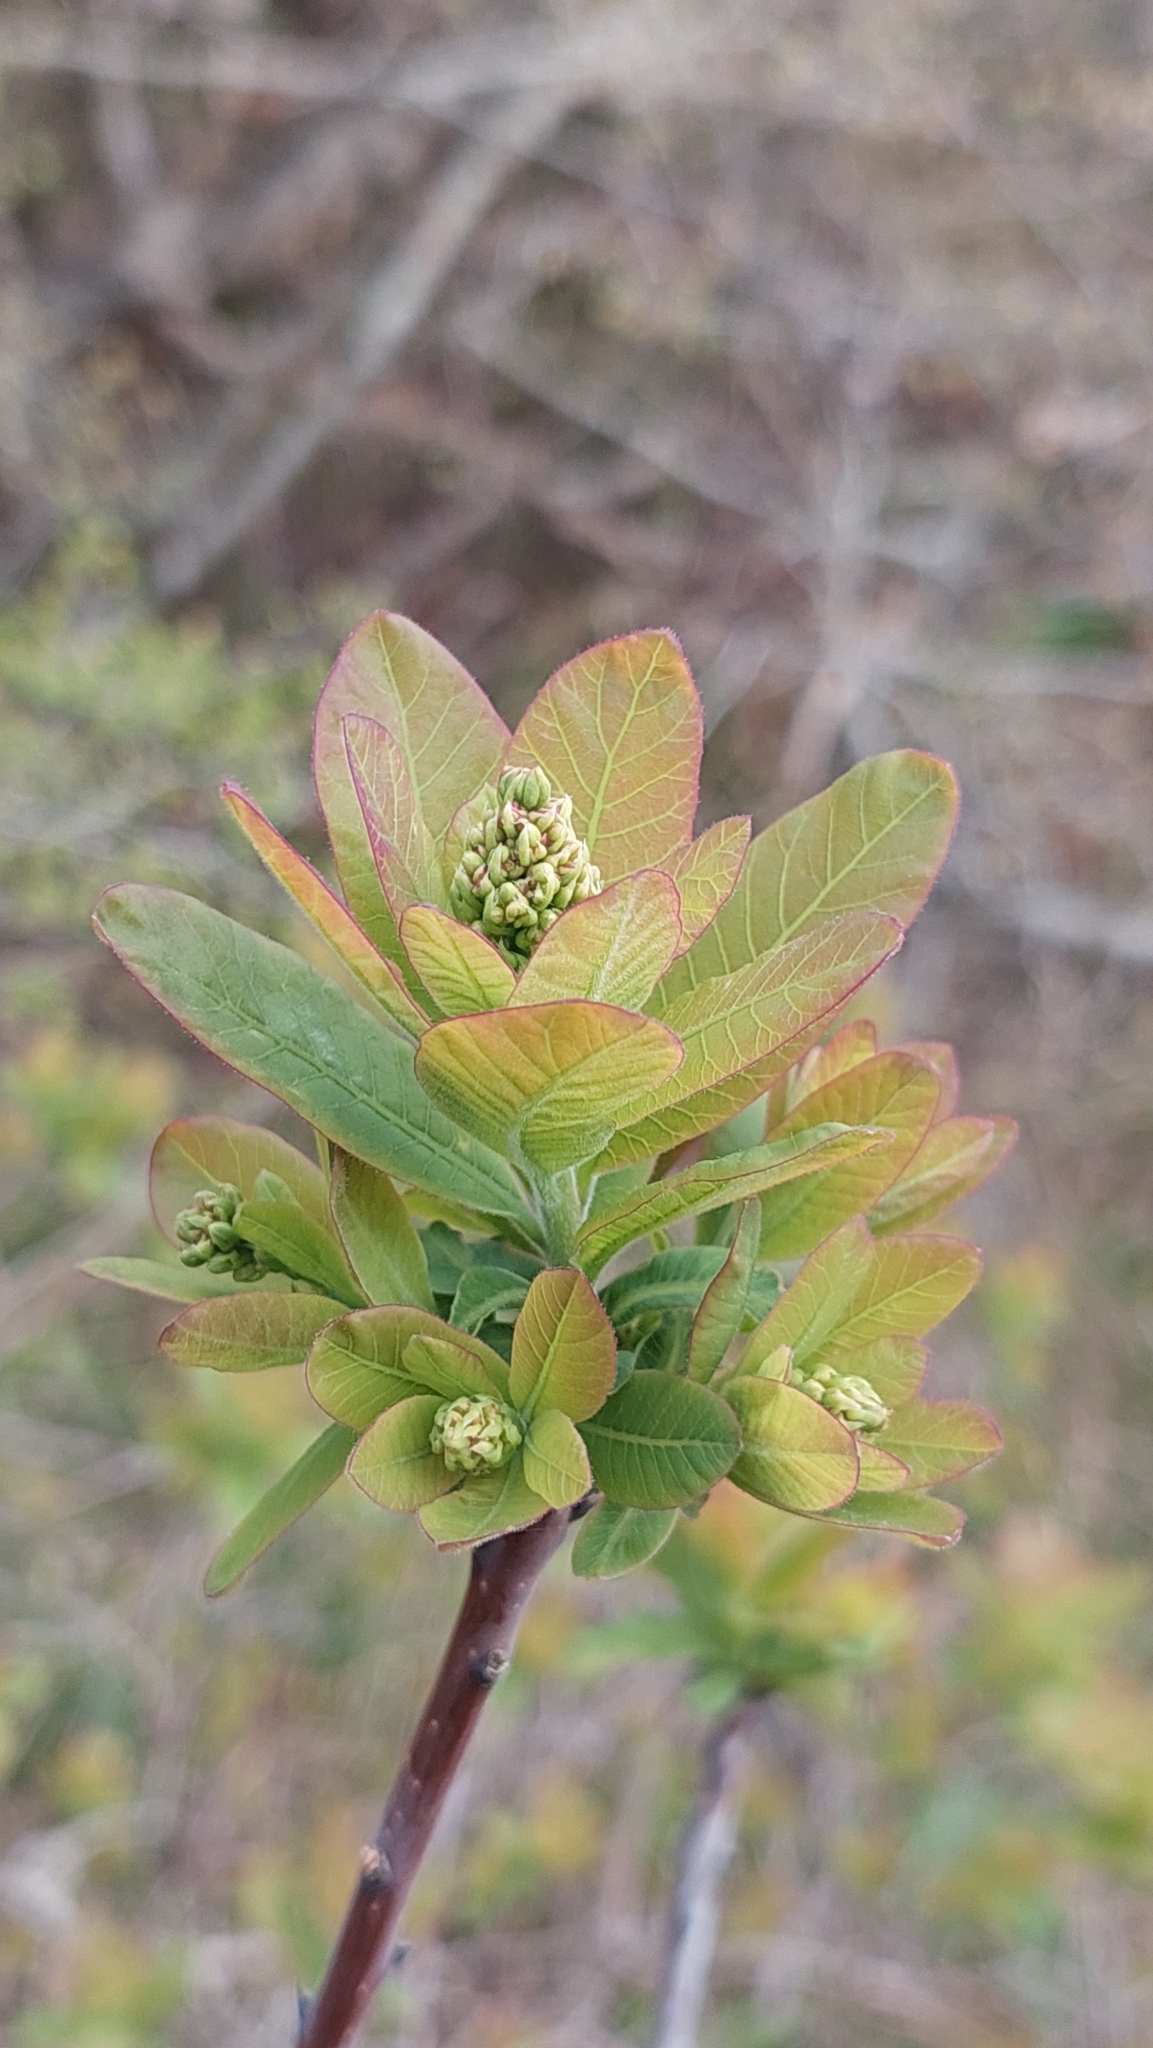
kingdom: Plantae
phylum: Tracheophyta
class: Magnoliopsida
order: Sapindales
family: Anacardiaceae
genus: Cotinus
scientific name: Cotinus coggygria
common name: Smoke-tree
